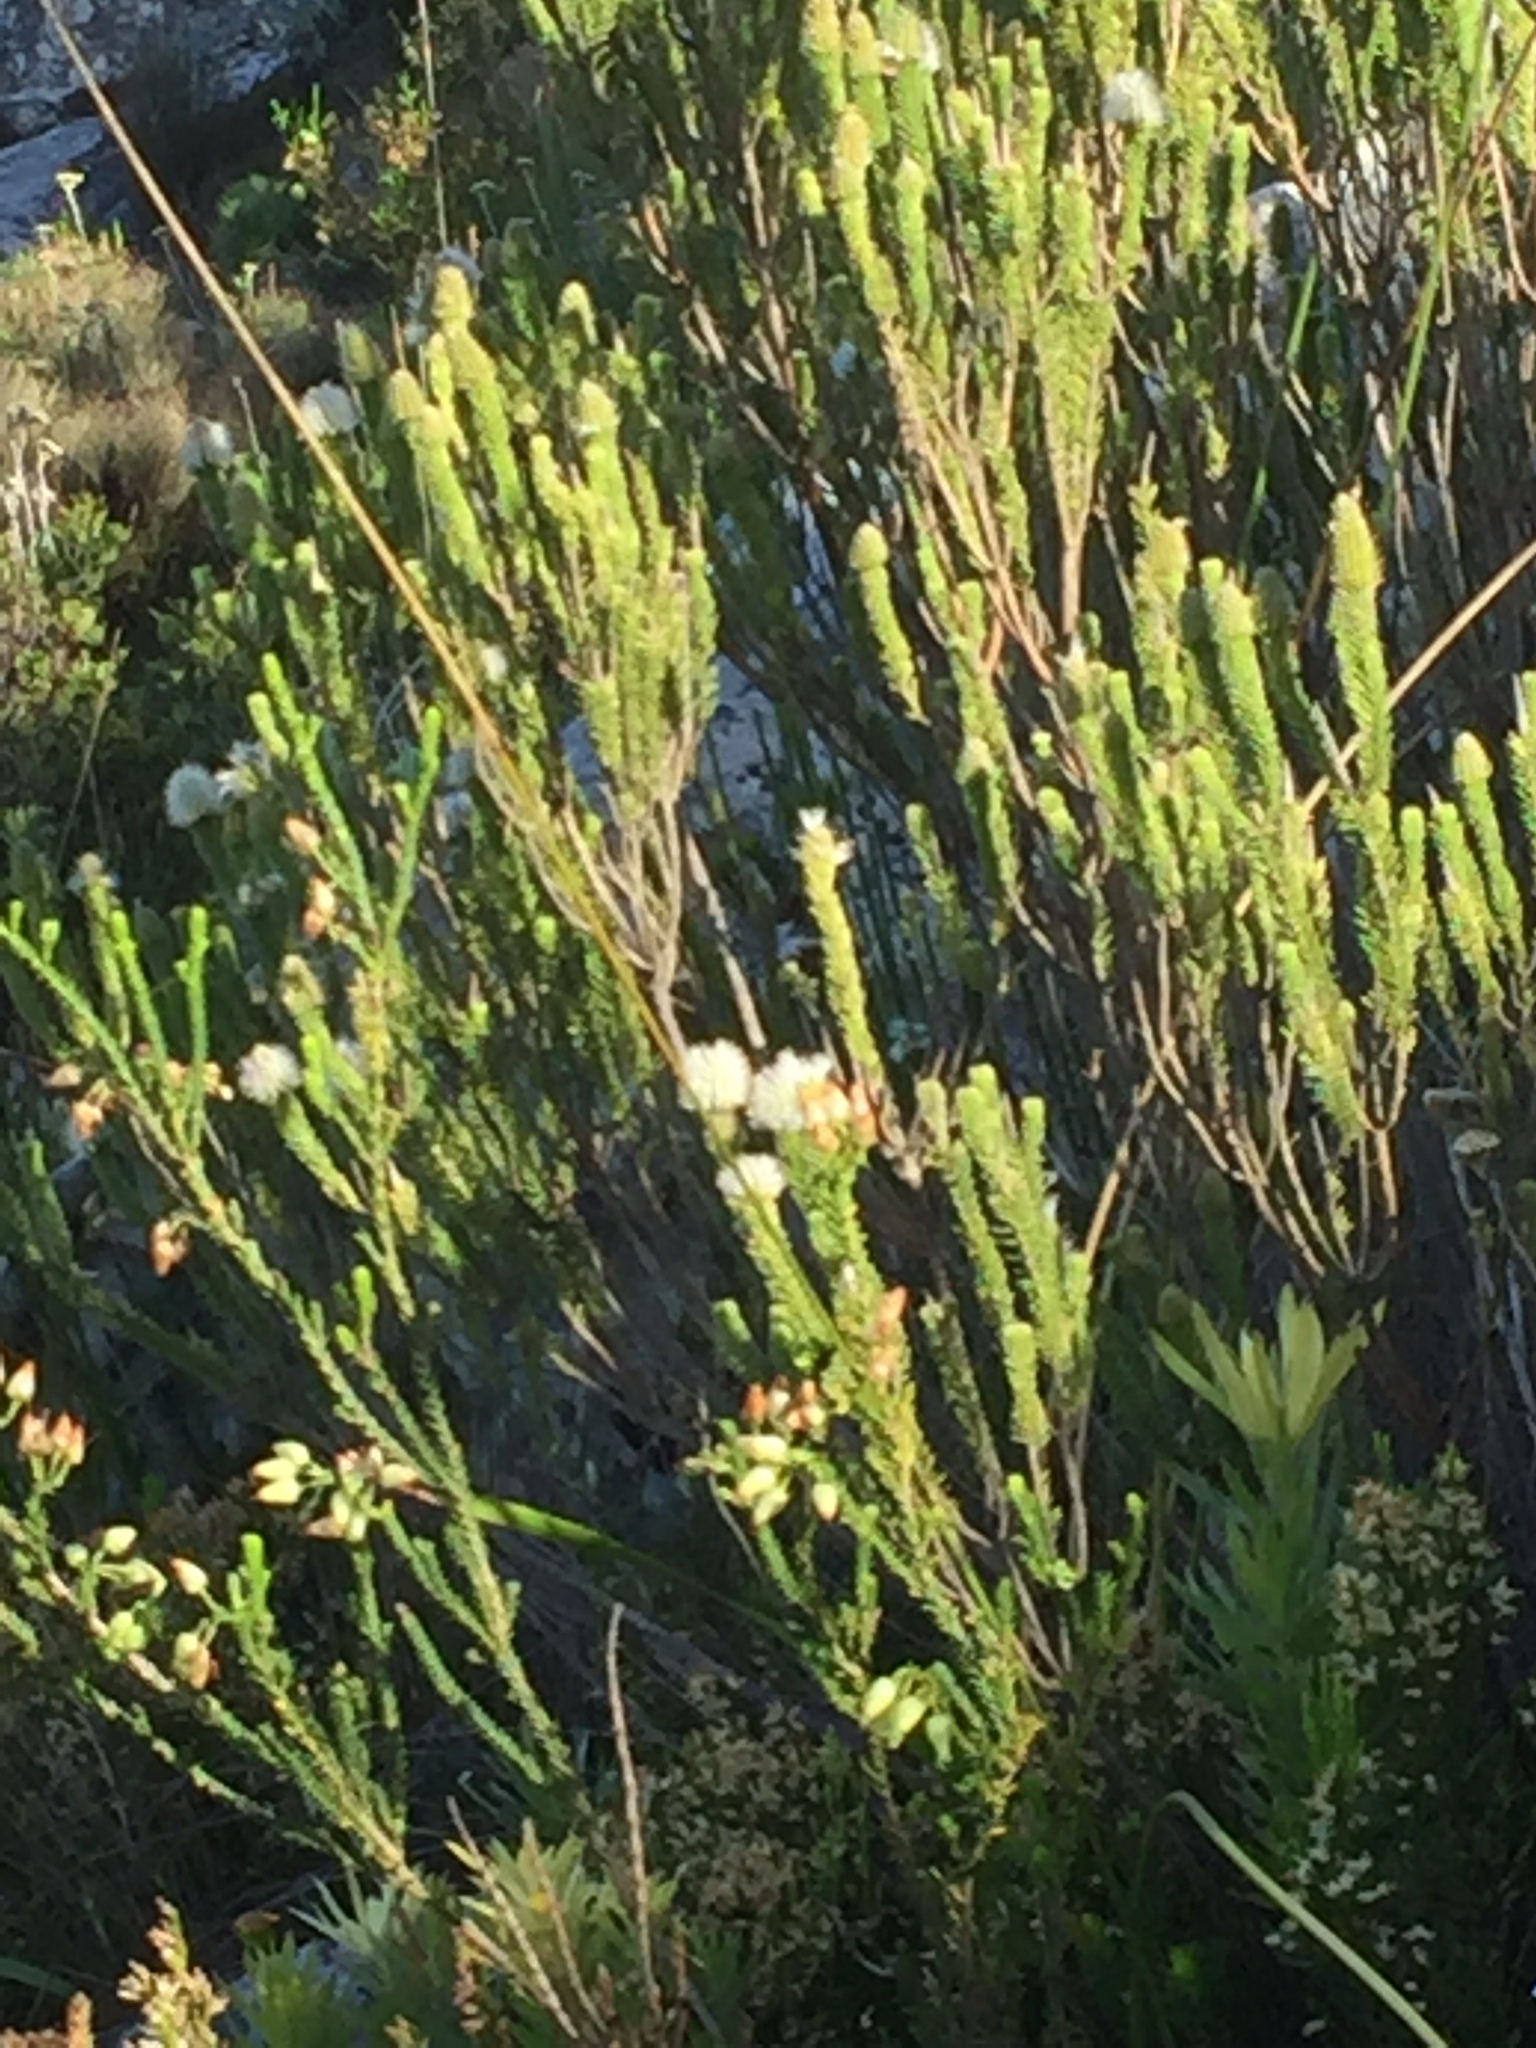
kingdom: Plantae
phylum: Tracheophyta
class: Magnoliopsida
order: Ericales
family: Ericaceae
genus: Erica
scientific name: Erica urna-viridis
